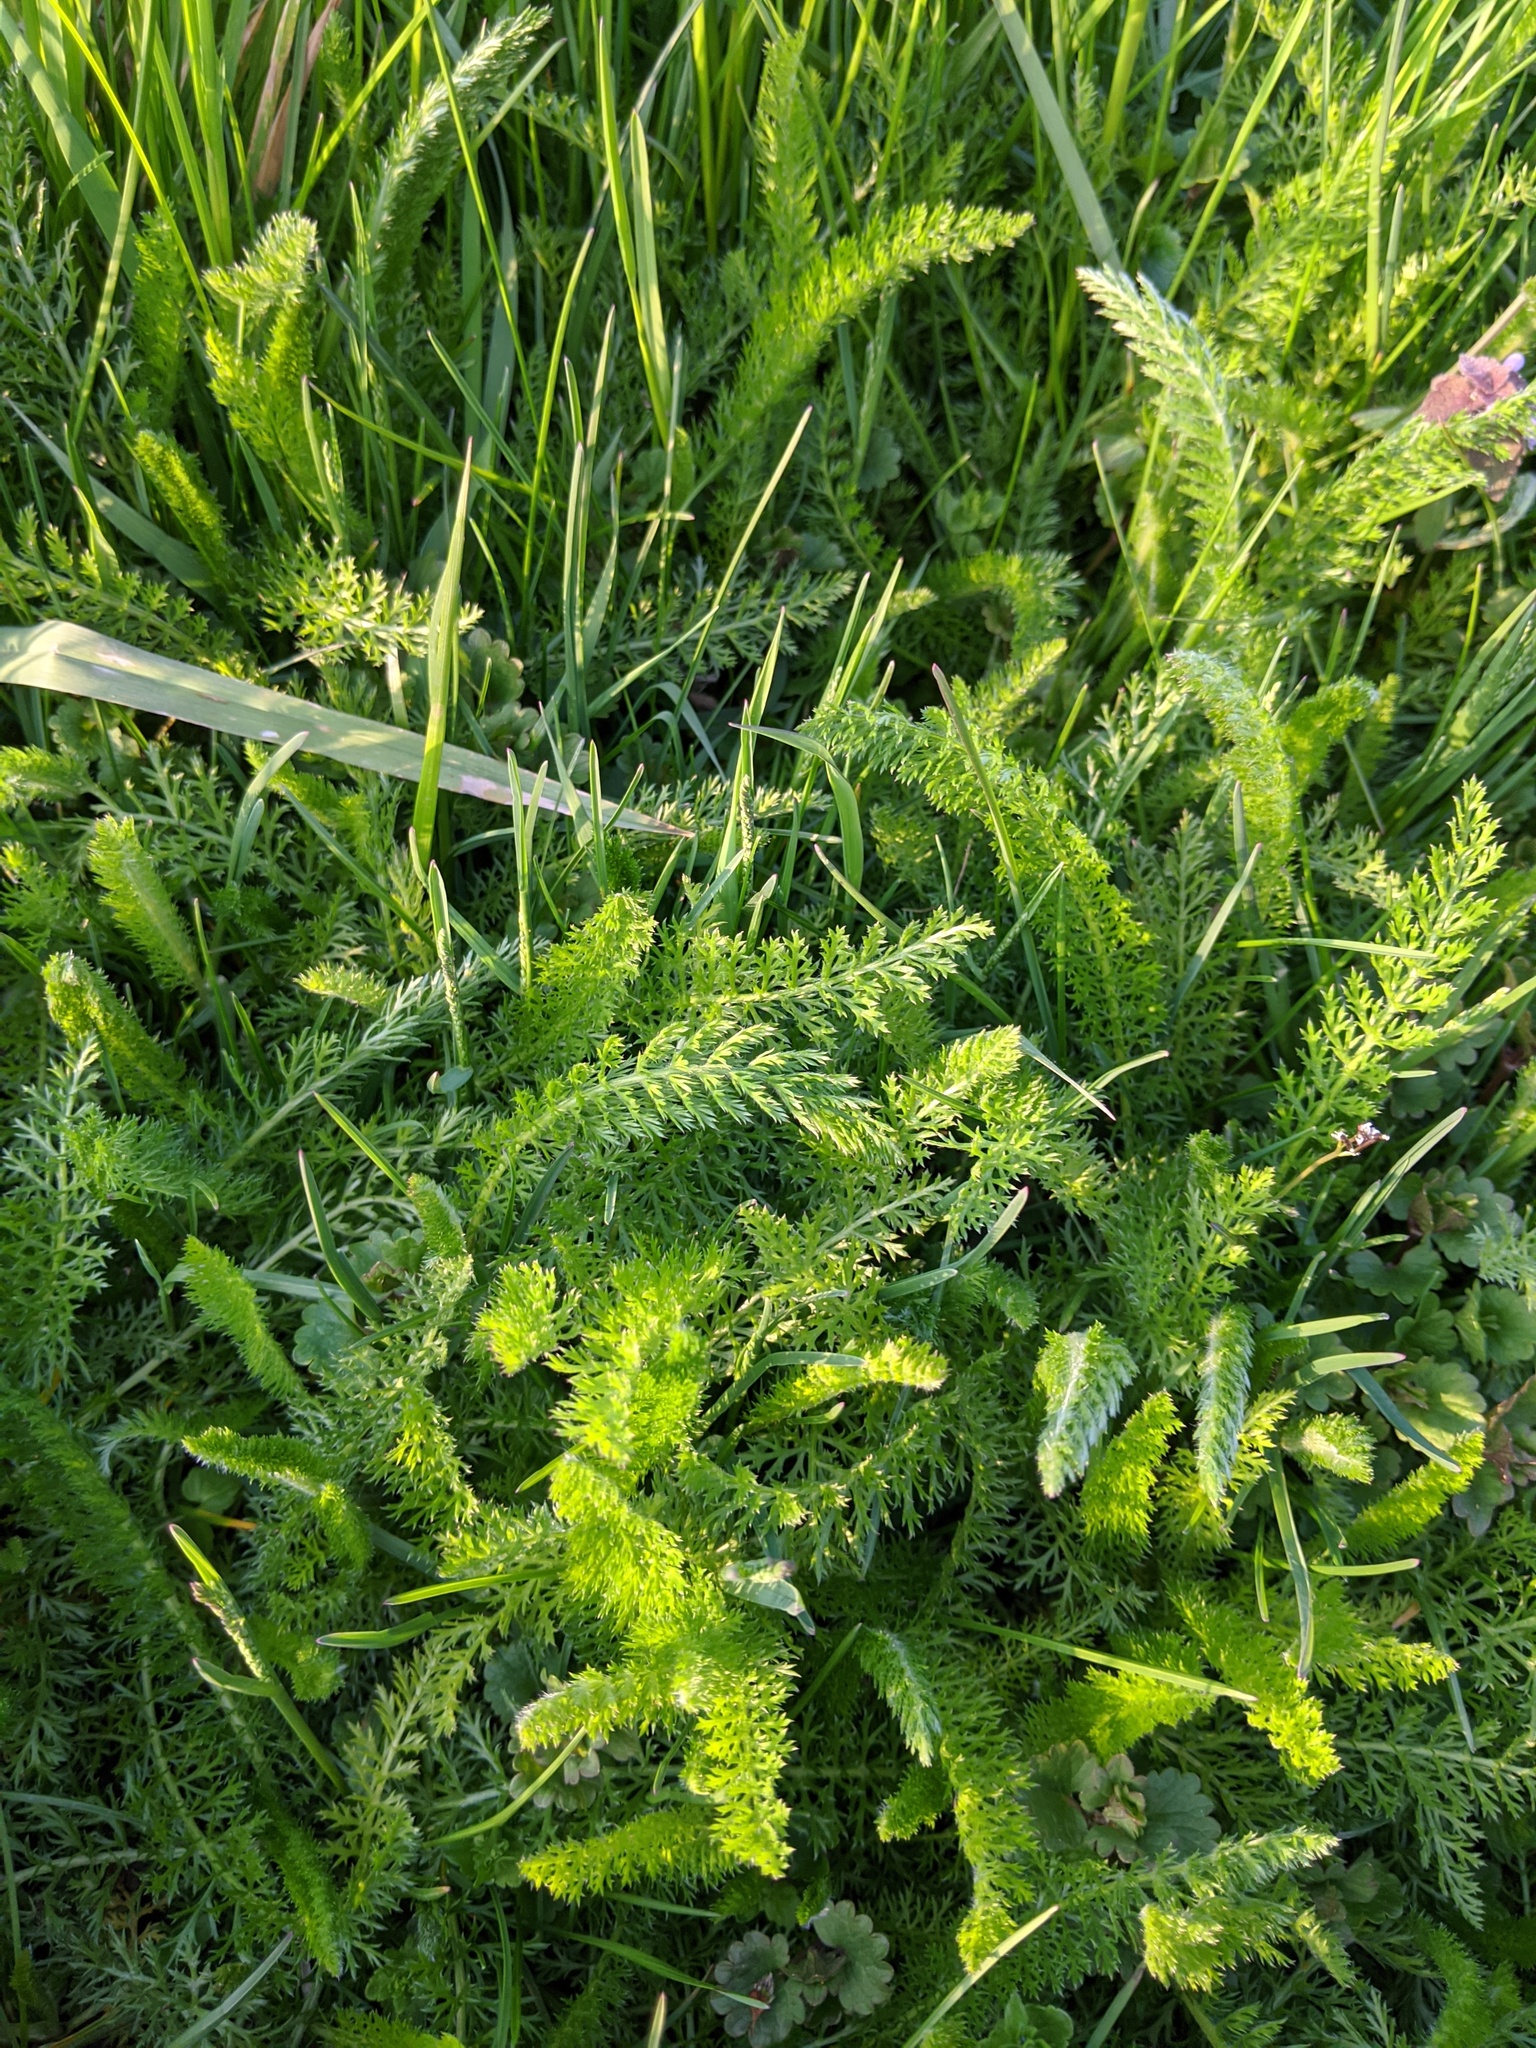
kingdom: Plantae
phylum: Tracheophyta
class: Magnoliopsida
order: Asterales
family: Asteraceae
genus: Achillea
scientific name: Achillea millefolium
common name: Yarrow
